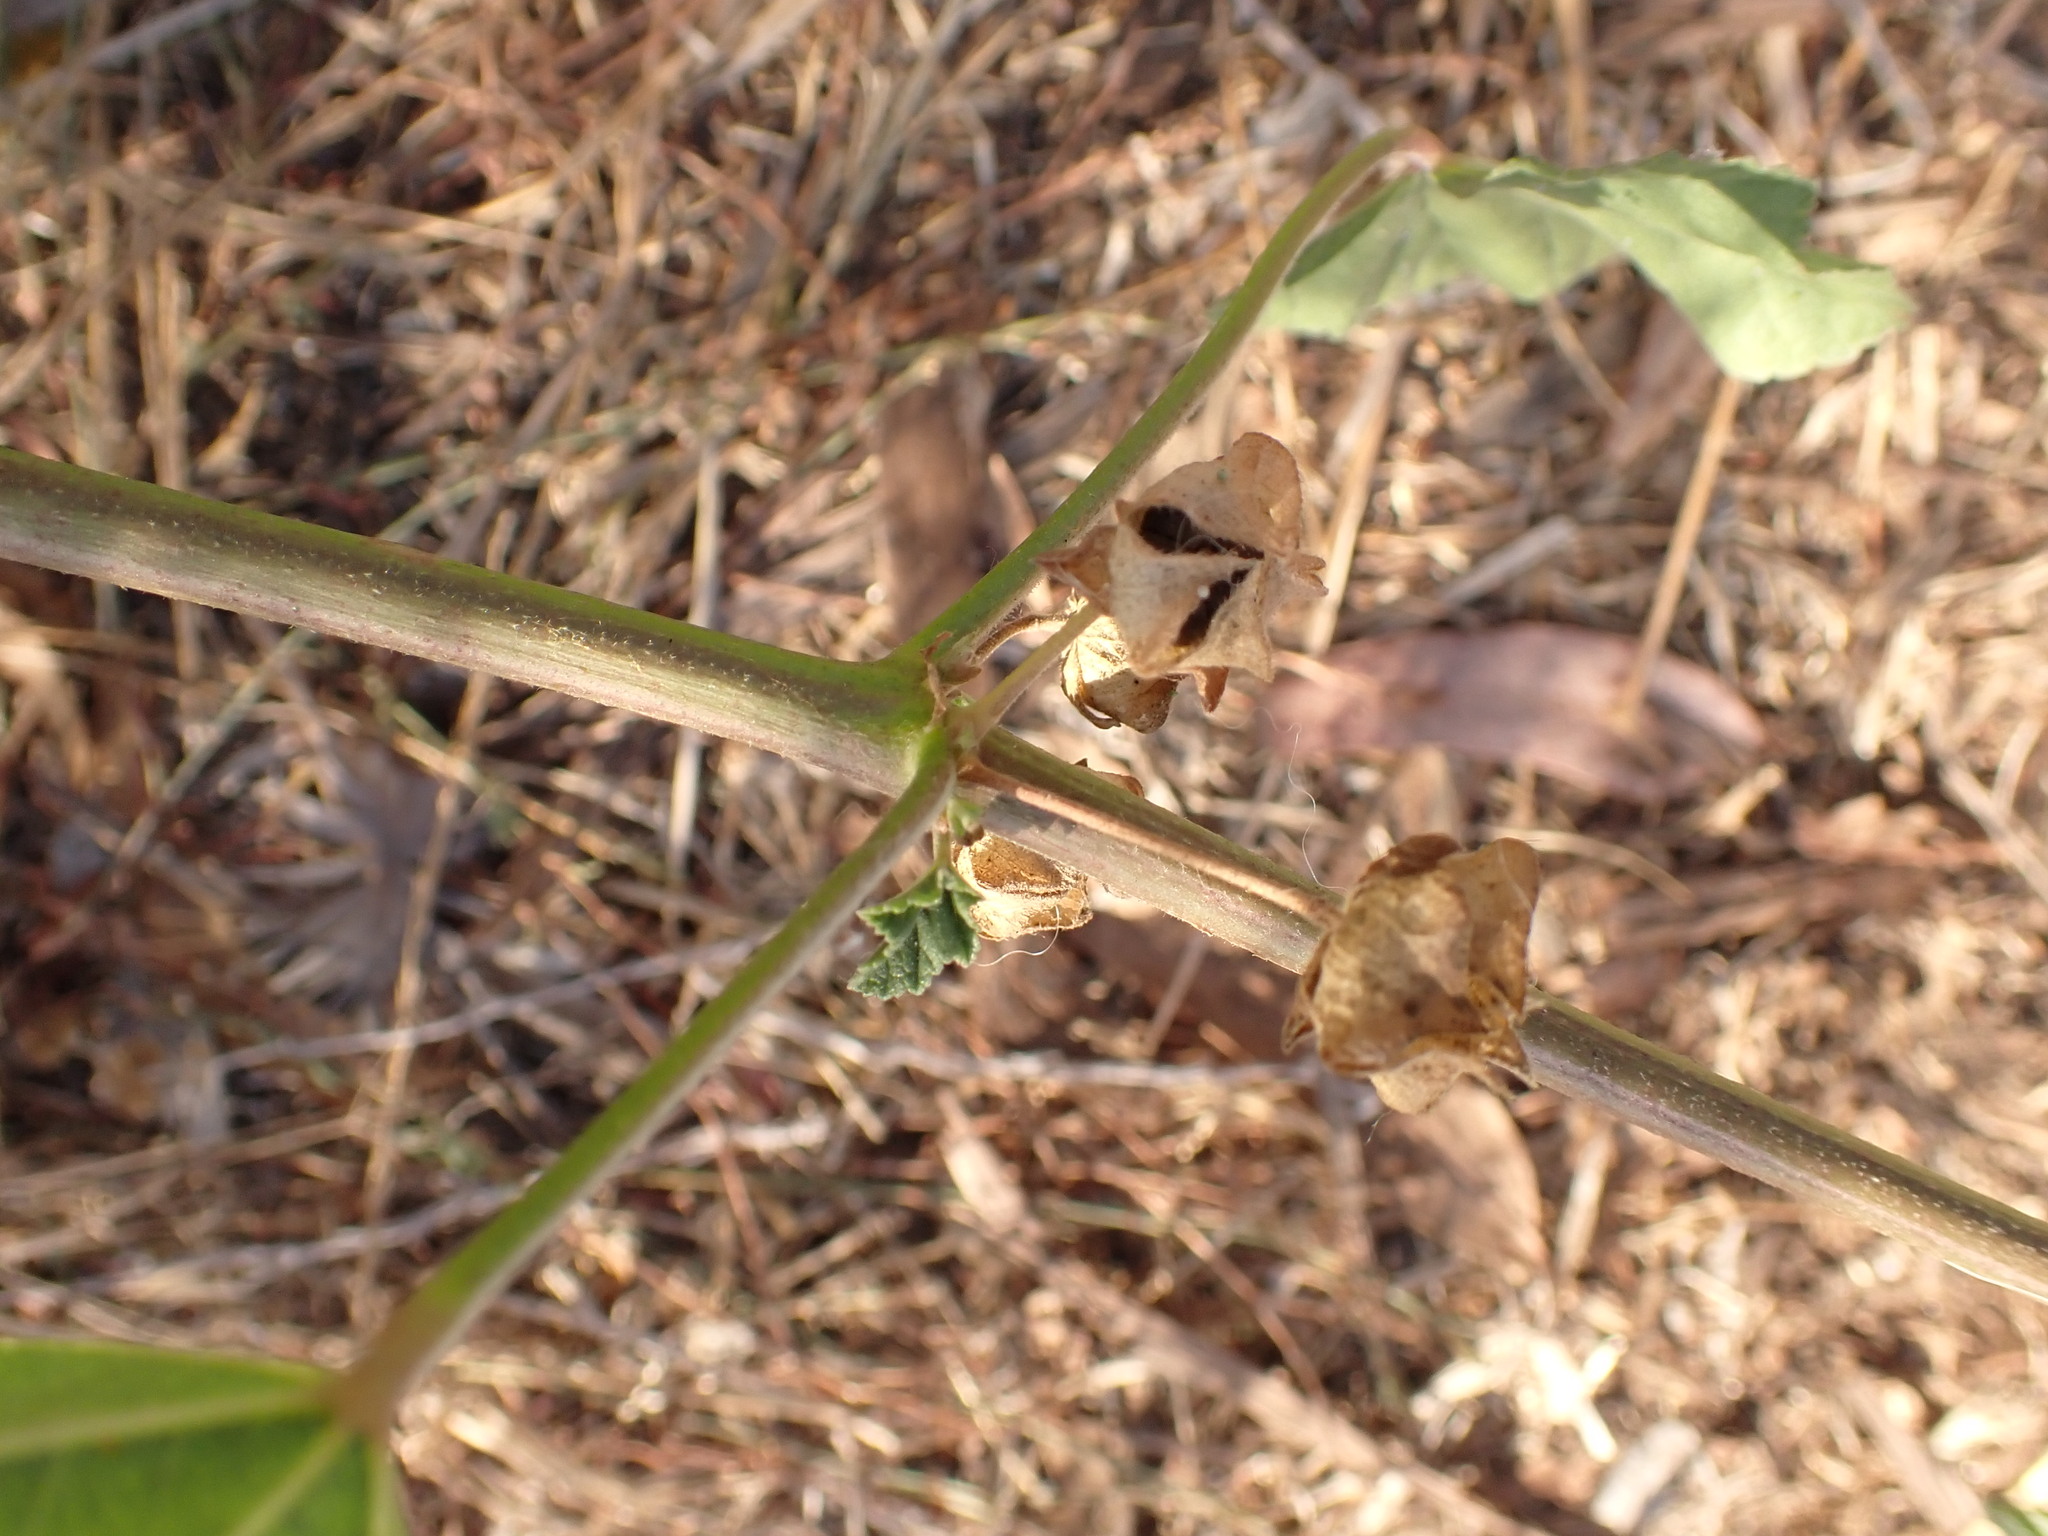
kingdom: Plantae
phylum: Tracheophyta
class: Magnoliopsida
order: Malvales
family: Malvaceae
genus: Malva
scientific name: Malva multiflora
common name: Cheeseweed
